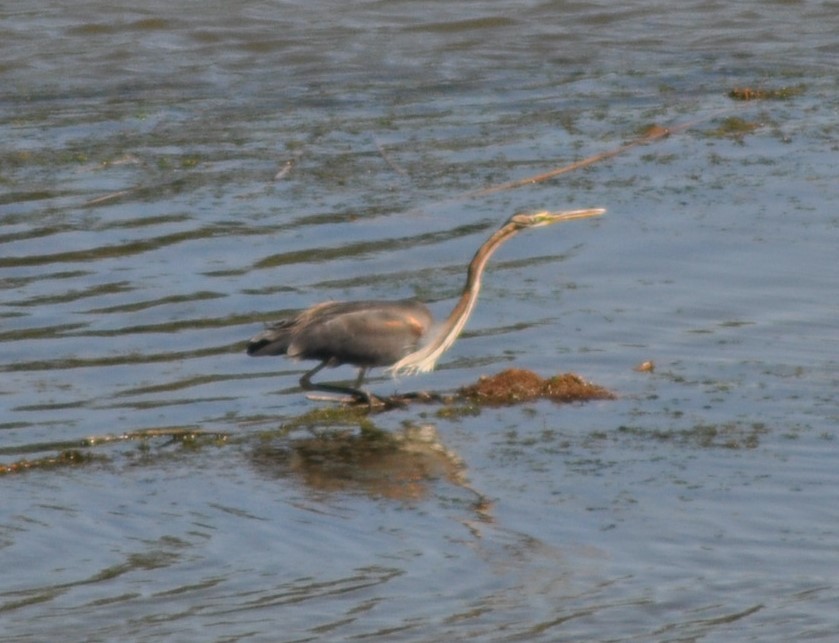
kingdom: Animalia
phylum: Chordata
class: Aves
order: Pelecaniformes
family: Ardeidae
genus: Ardea
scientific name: Ardea purpurea
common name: Purple heron
